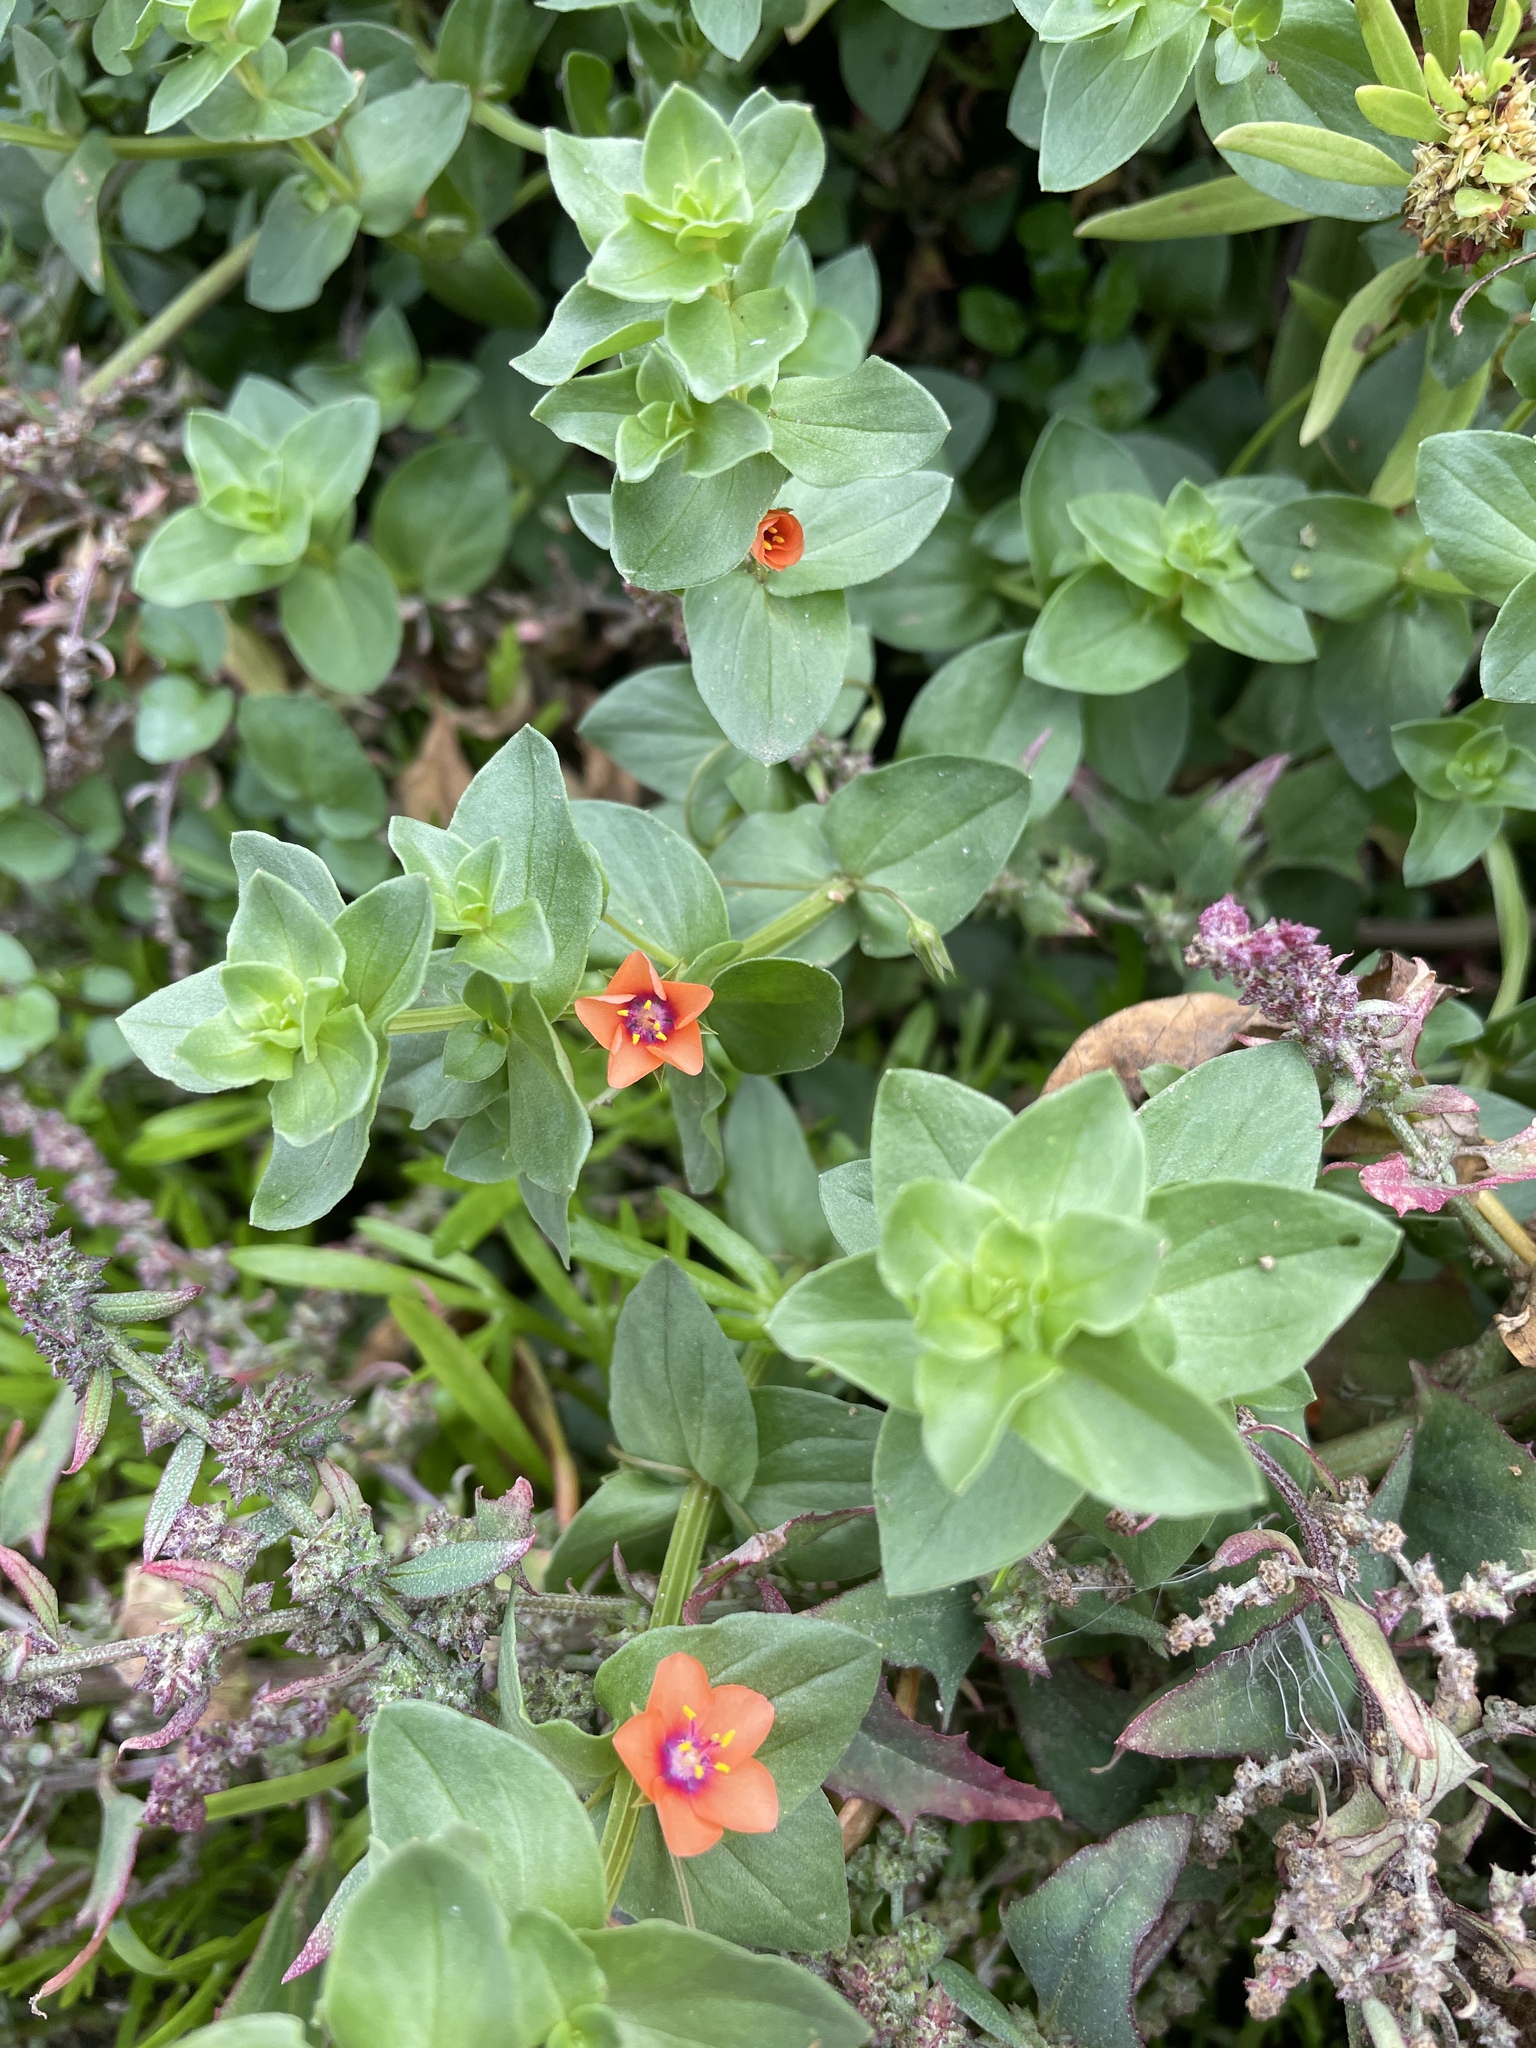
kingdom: Plantae
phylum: Tracheophyta
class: Magnoliopsida
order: Ericales
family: Primulaceae
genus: Lysimachia
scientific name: Lysimachia arvensis
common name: Scarlet pimpernel
